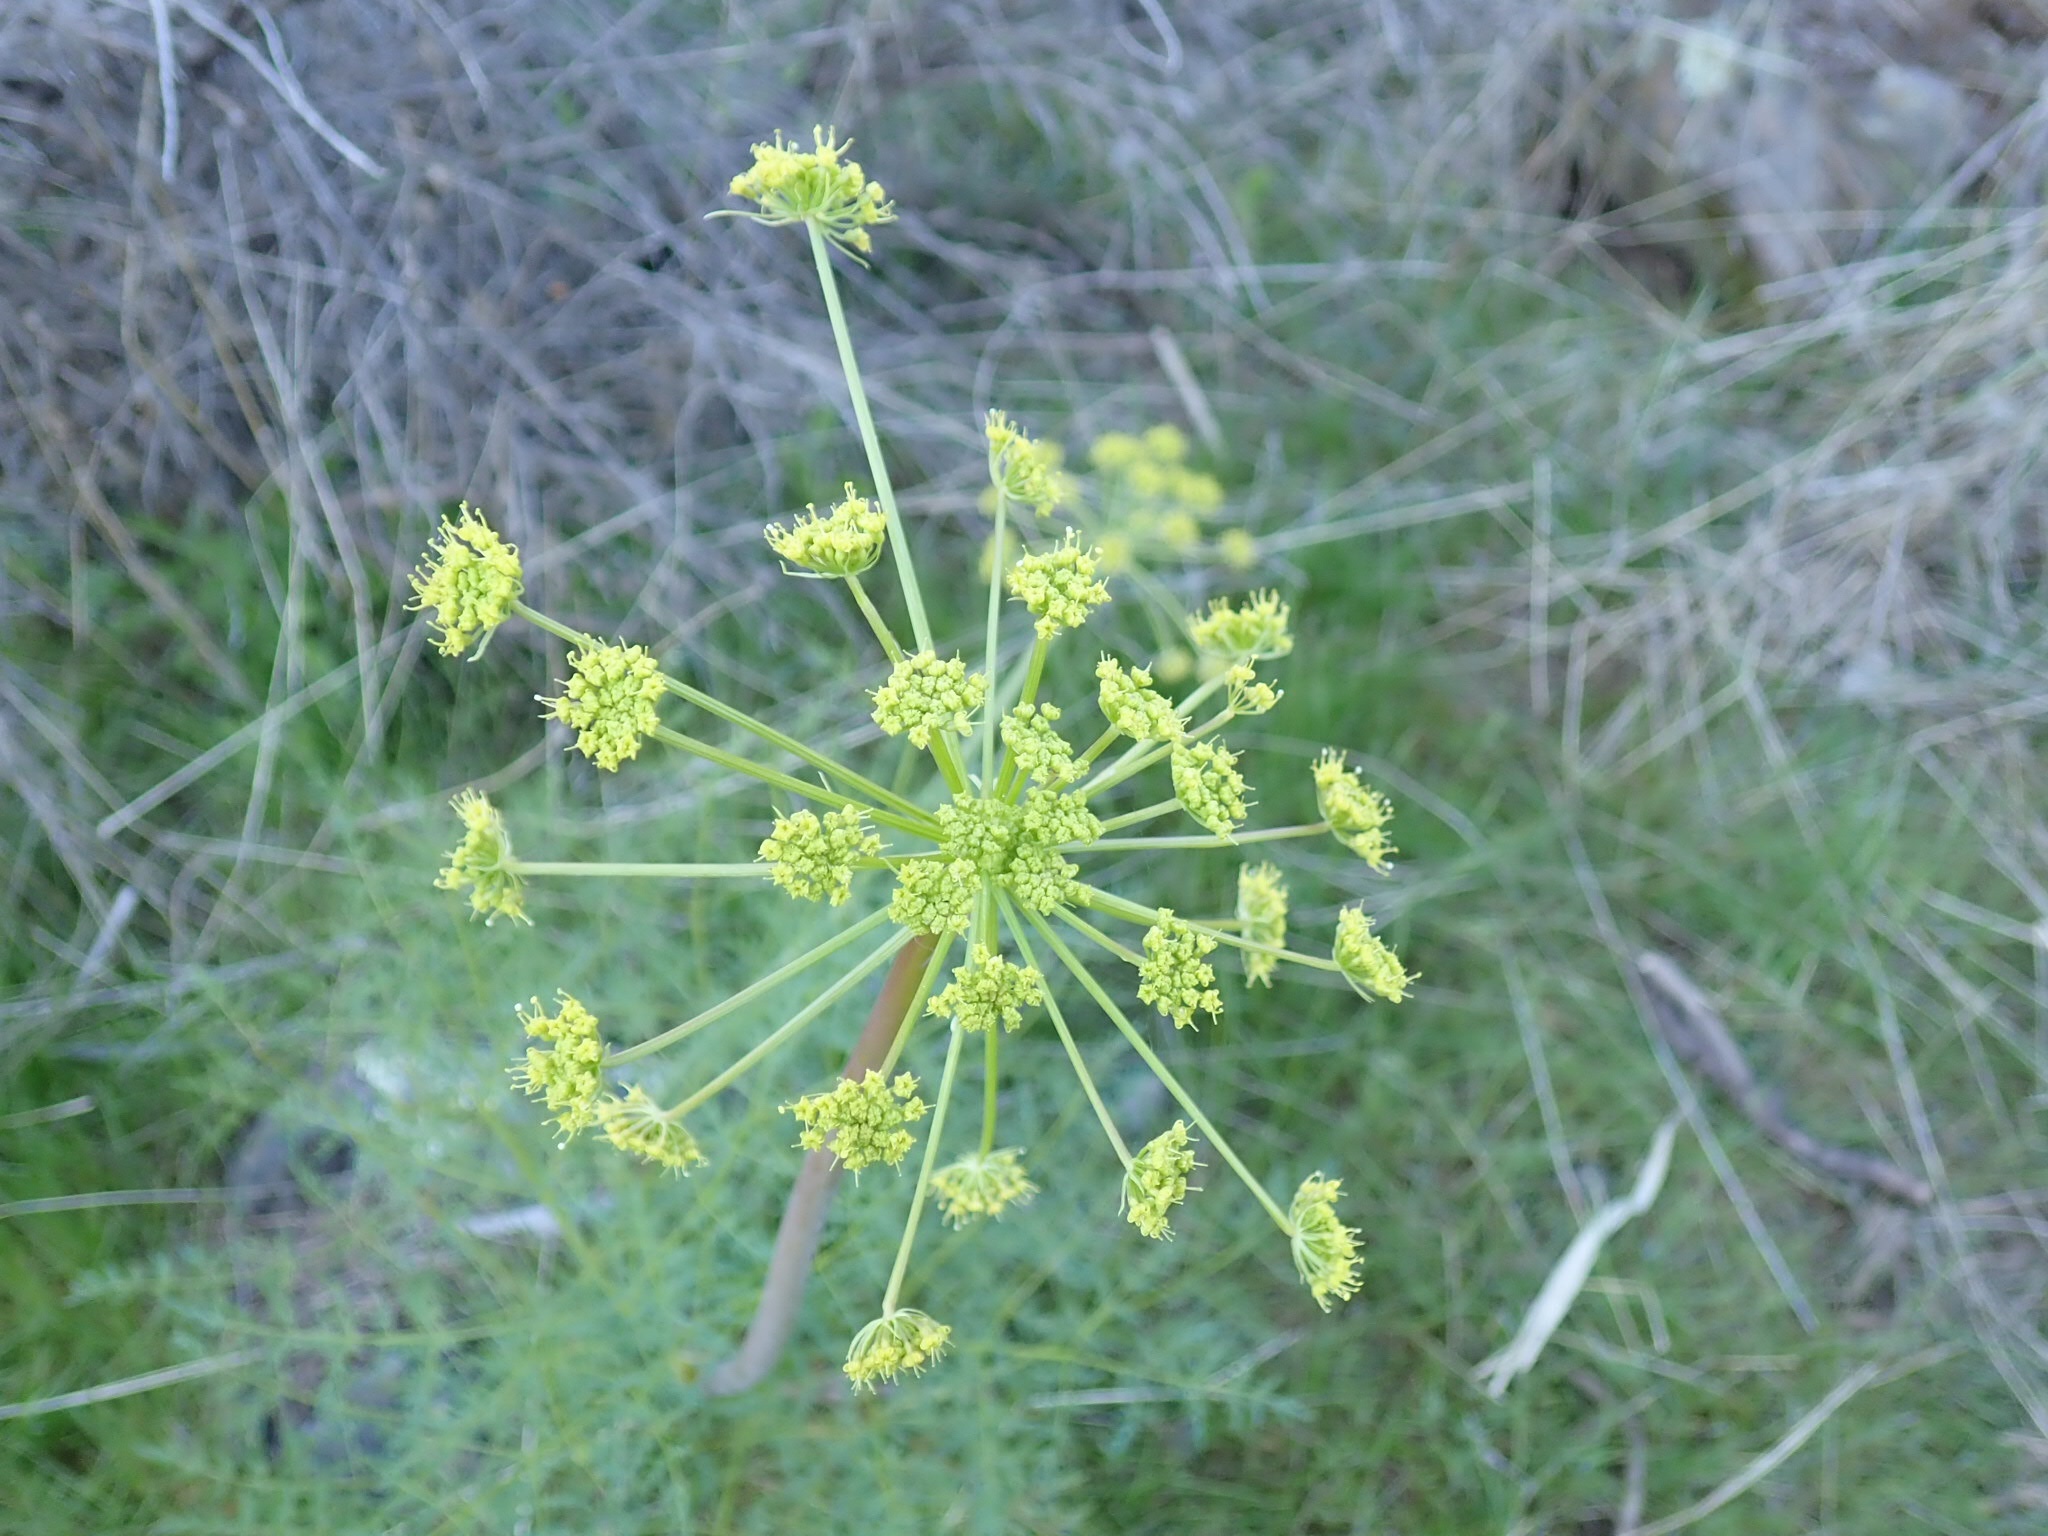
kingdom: Plantae
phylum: Tracheophyta
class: Magnoliopsida
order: Apiales
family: Apiaceae
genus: Lomatium
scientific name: Lomatium multifidum
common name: Carrot-leaved biscuitroot
